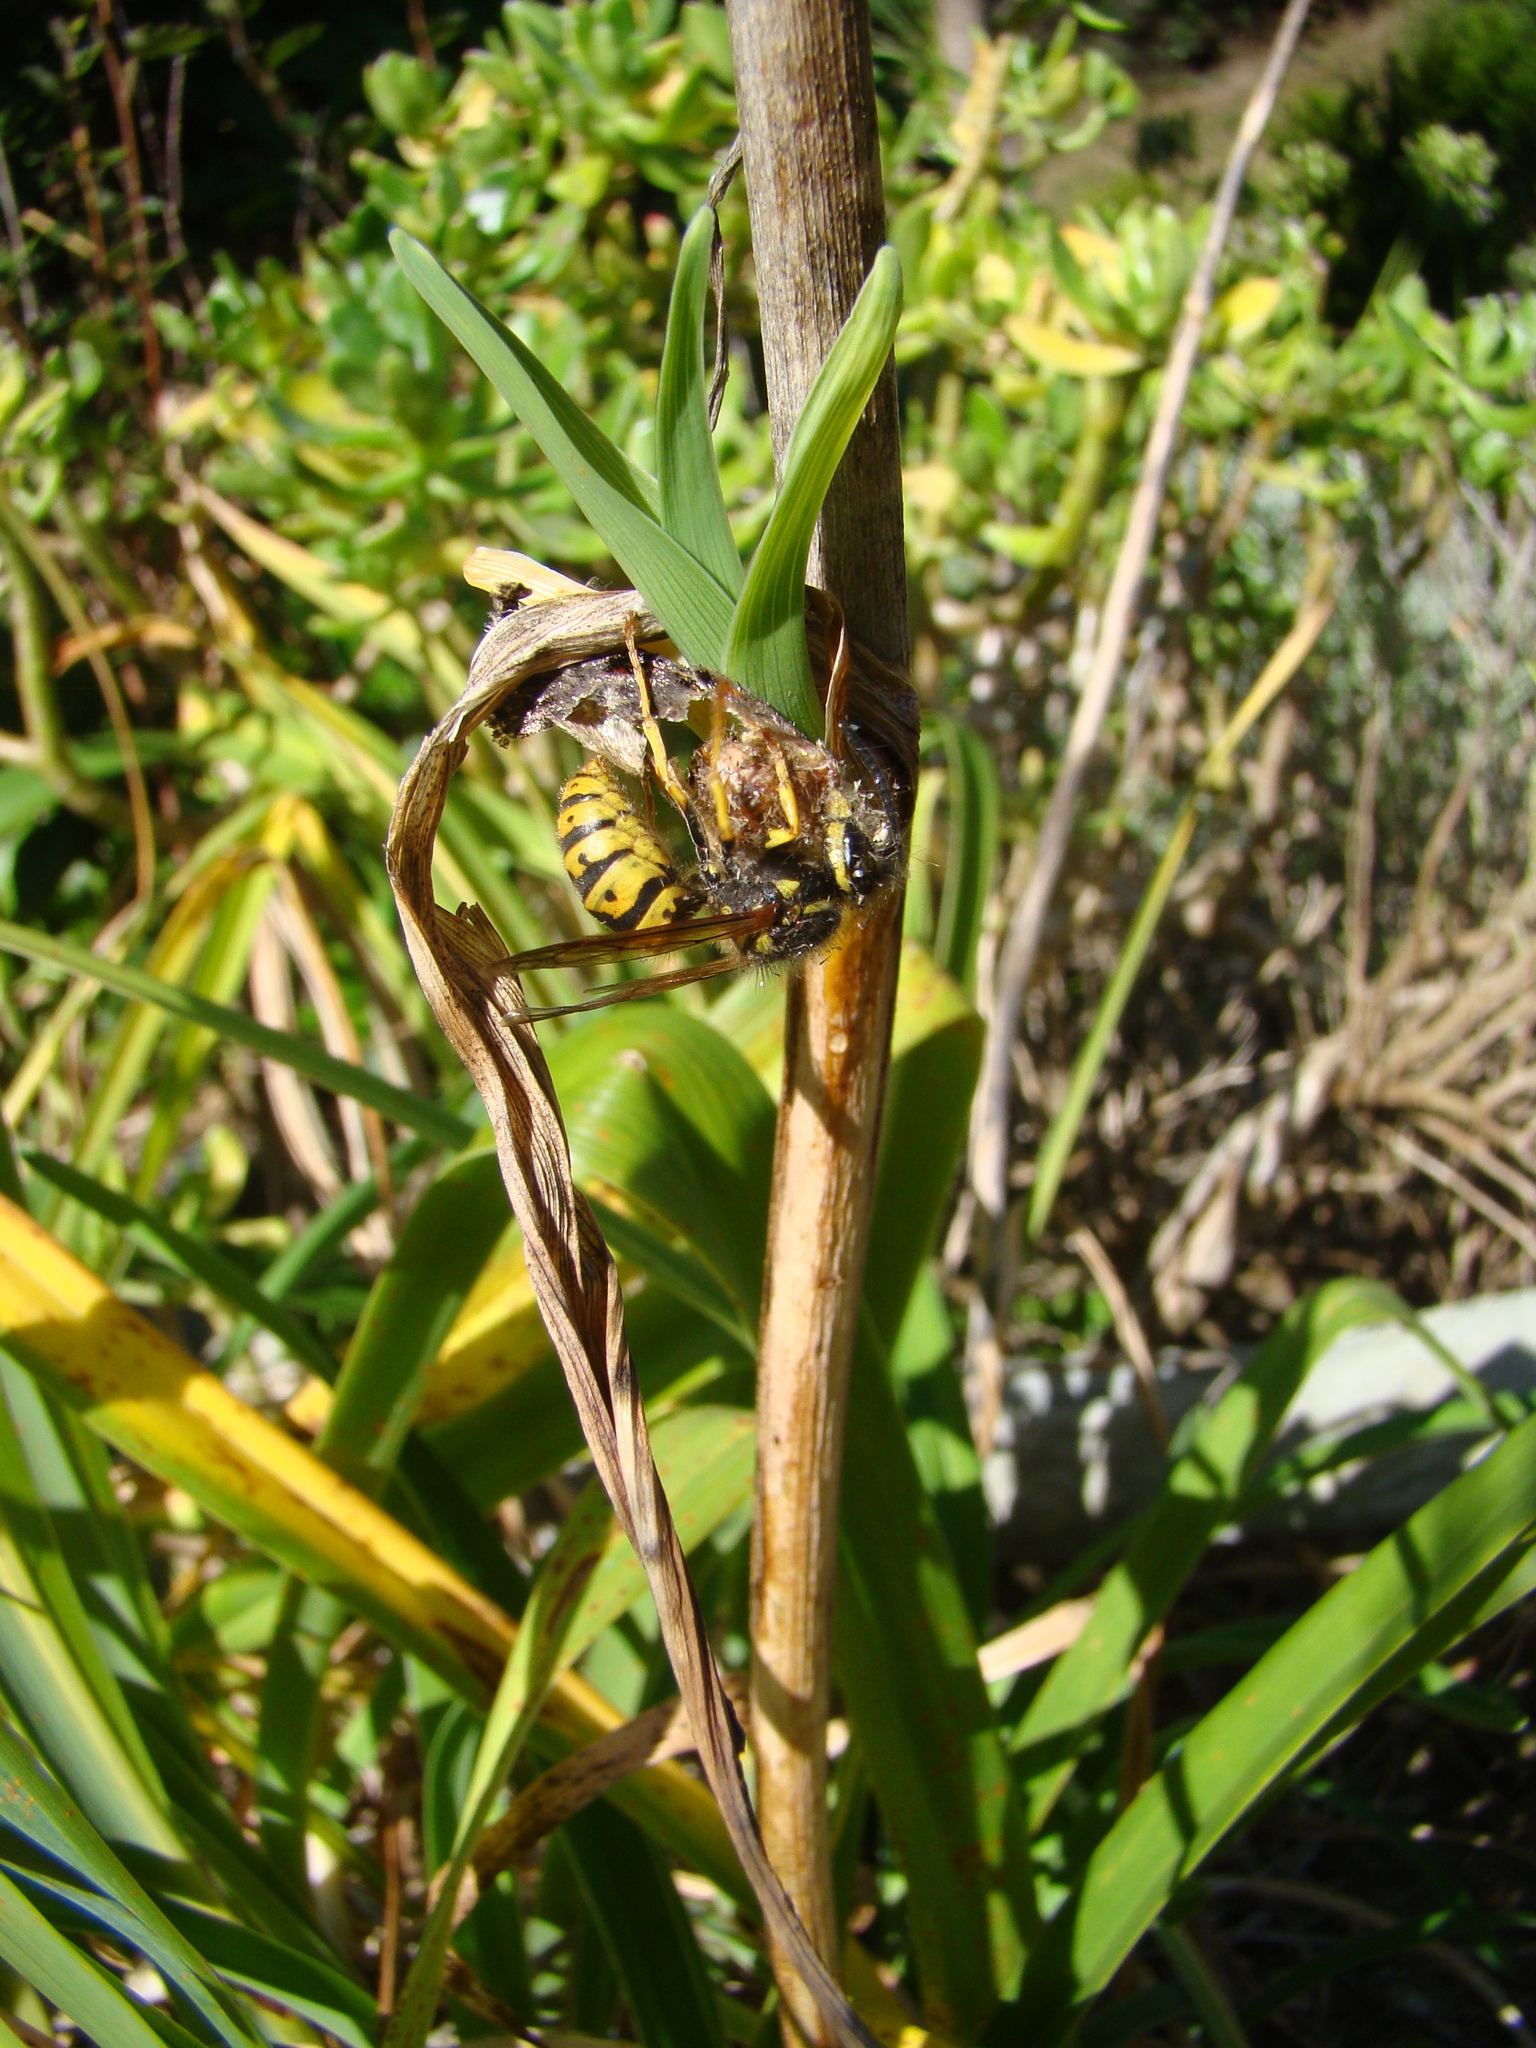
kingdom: Animalia
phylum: Arthropoda
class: Insecta
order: Hymenoptera
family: Vespidae
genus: Vespula
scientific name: Vespula germanica
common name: German wasp
